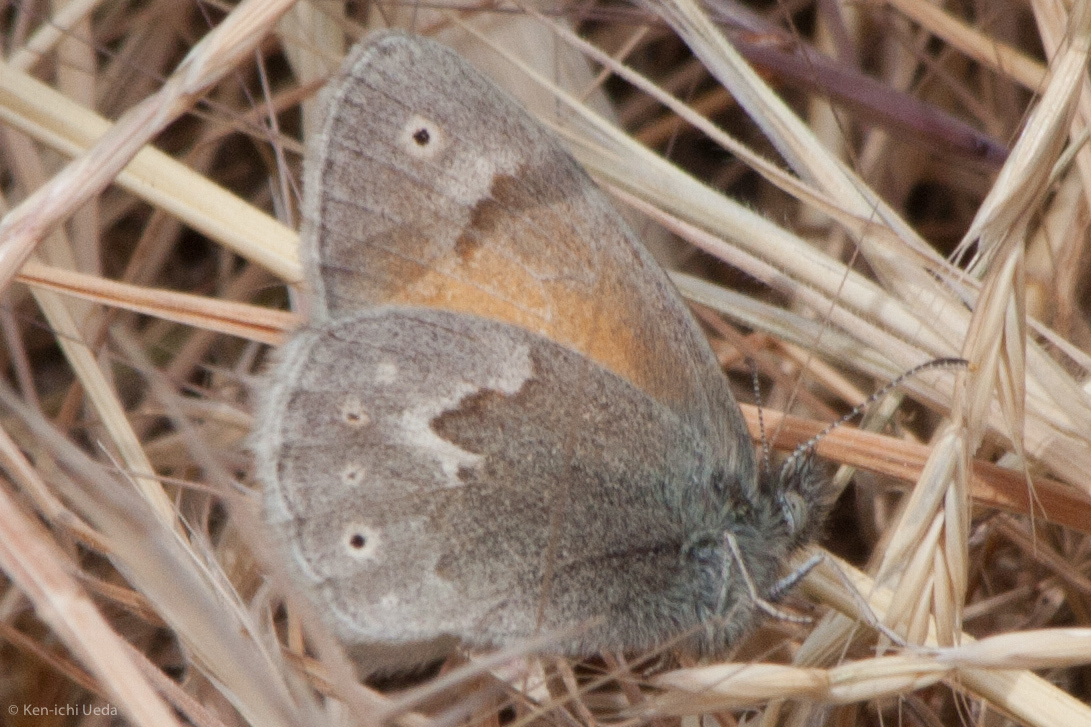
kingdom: Animalia
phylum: Arthropoda
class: Insecta
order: Lepidoptera
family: Nymphalidae
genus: Coenonympha
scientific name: Coenonympha california
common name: Common ringlet
